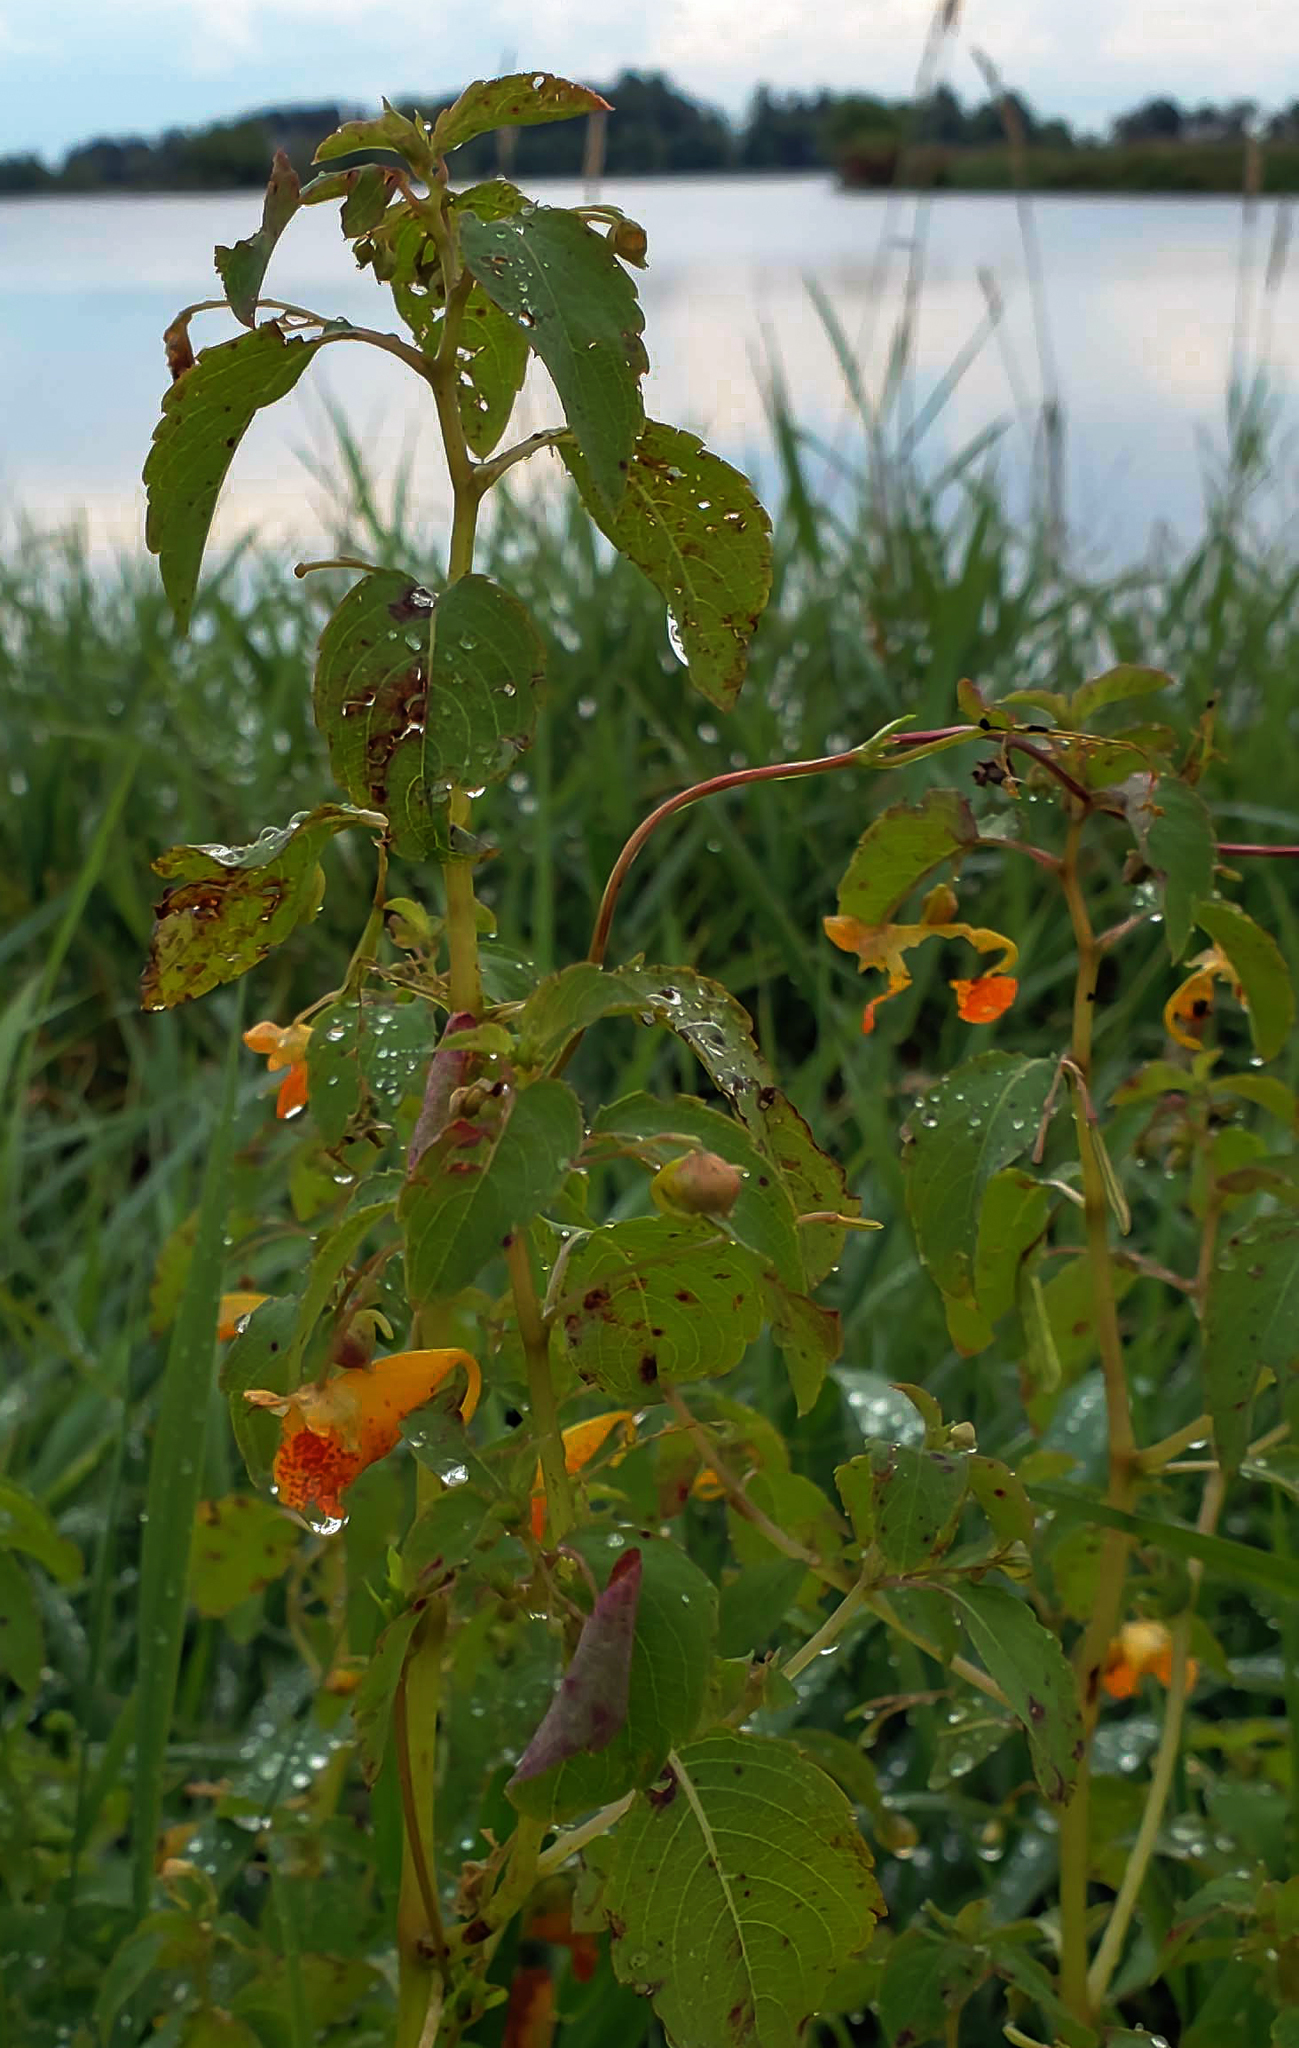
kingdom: Plantae
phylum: Tracheophyta
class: Magnoliopsida
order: Ericales
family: Balsaminaceae
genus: Impatiens
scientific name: Impatiens capensis
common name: Orange balsam
